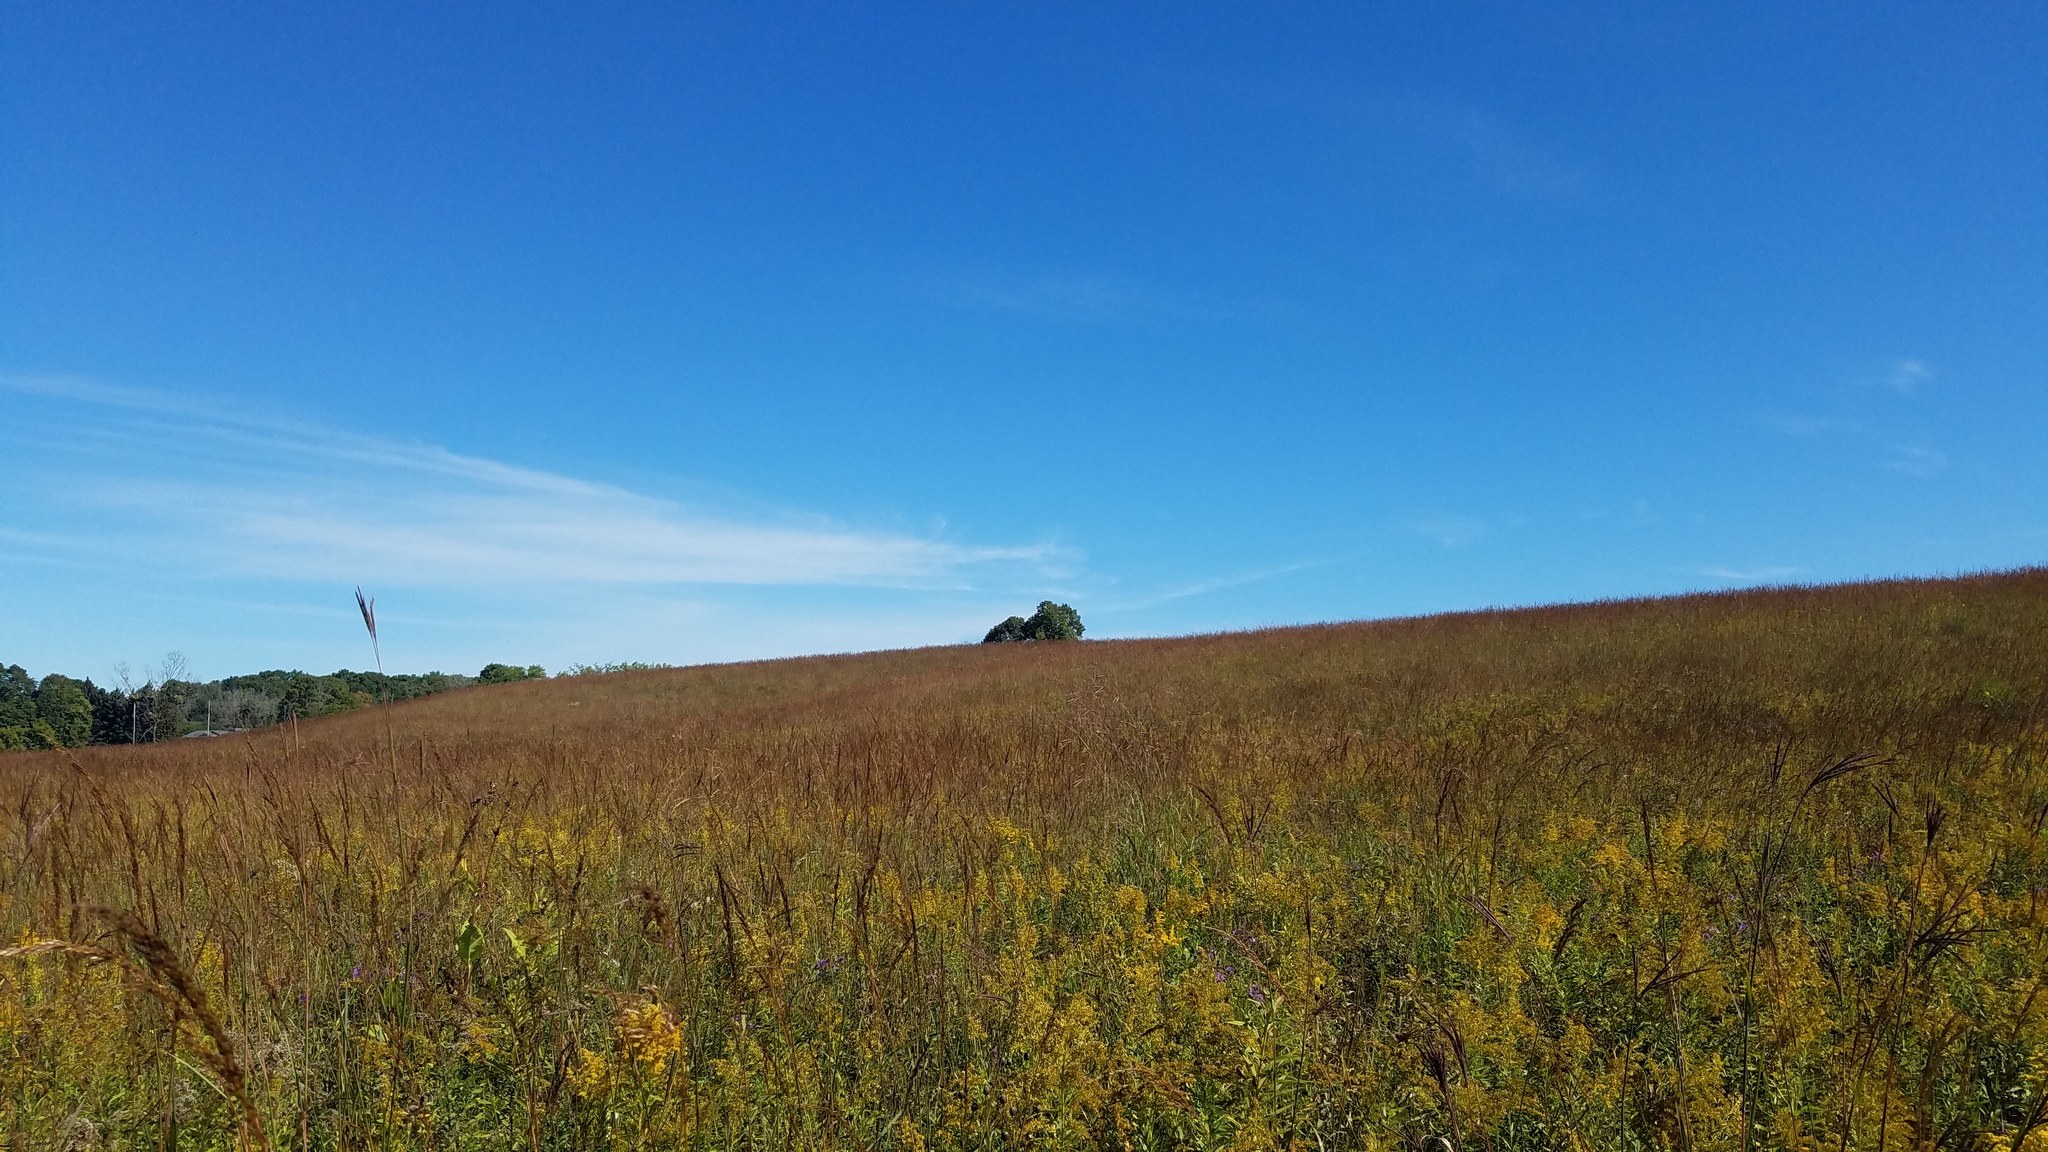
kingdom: Plantae
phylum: Tracheophyta
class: Liliopsida
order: Poales
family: Poaceae
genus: Sorghastrum
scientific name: Sorghastrum nutans
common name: Indian grass
